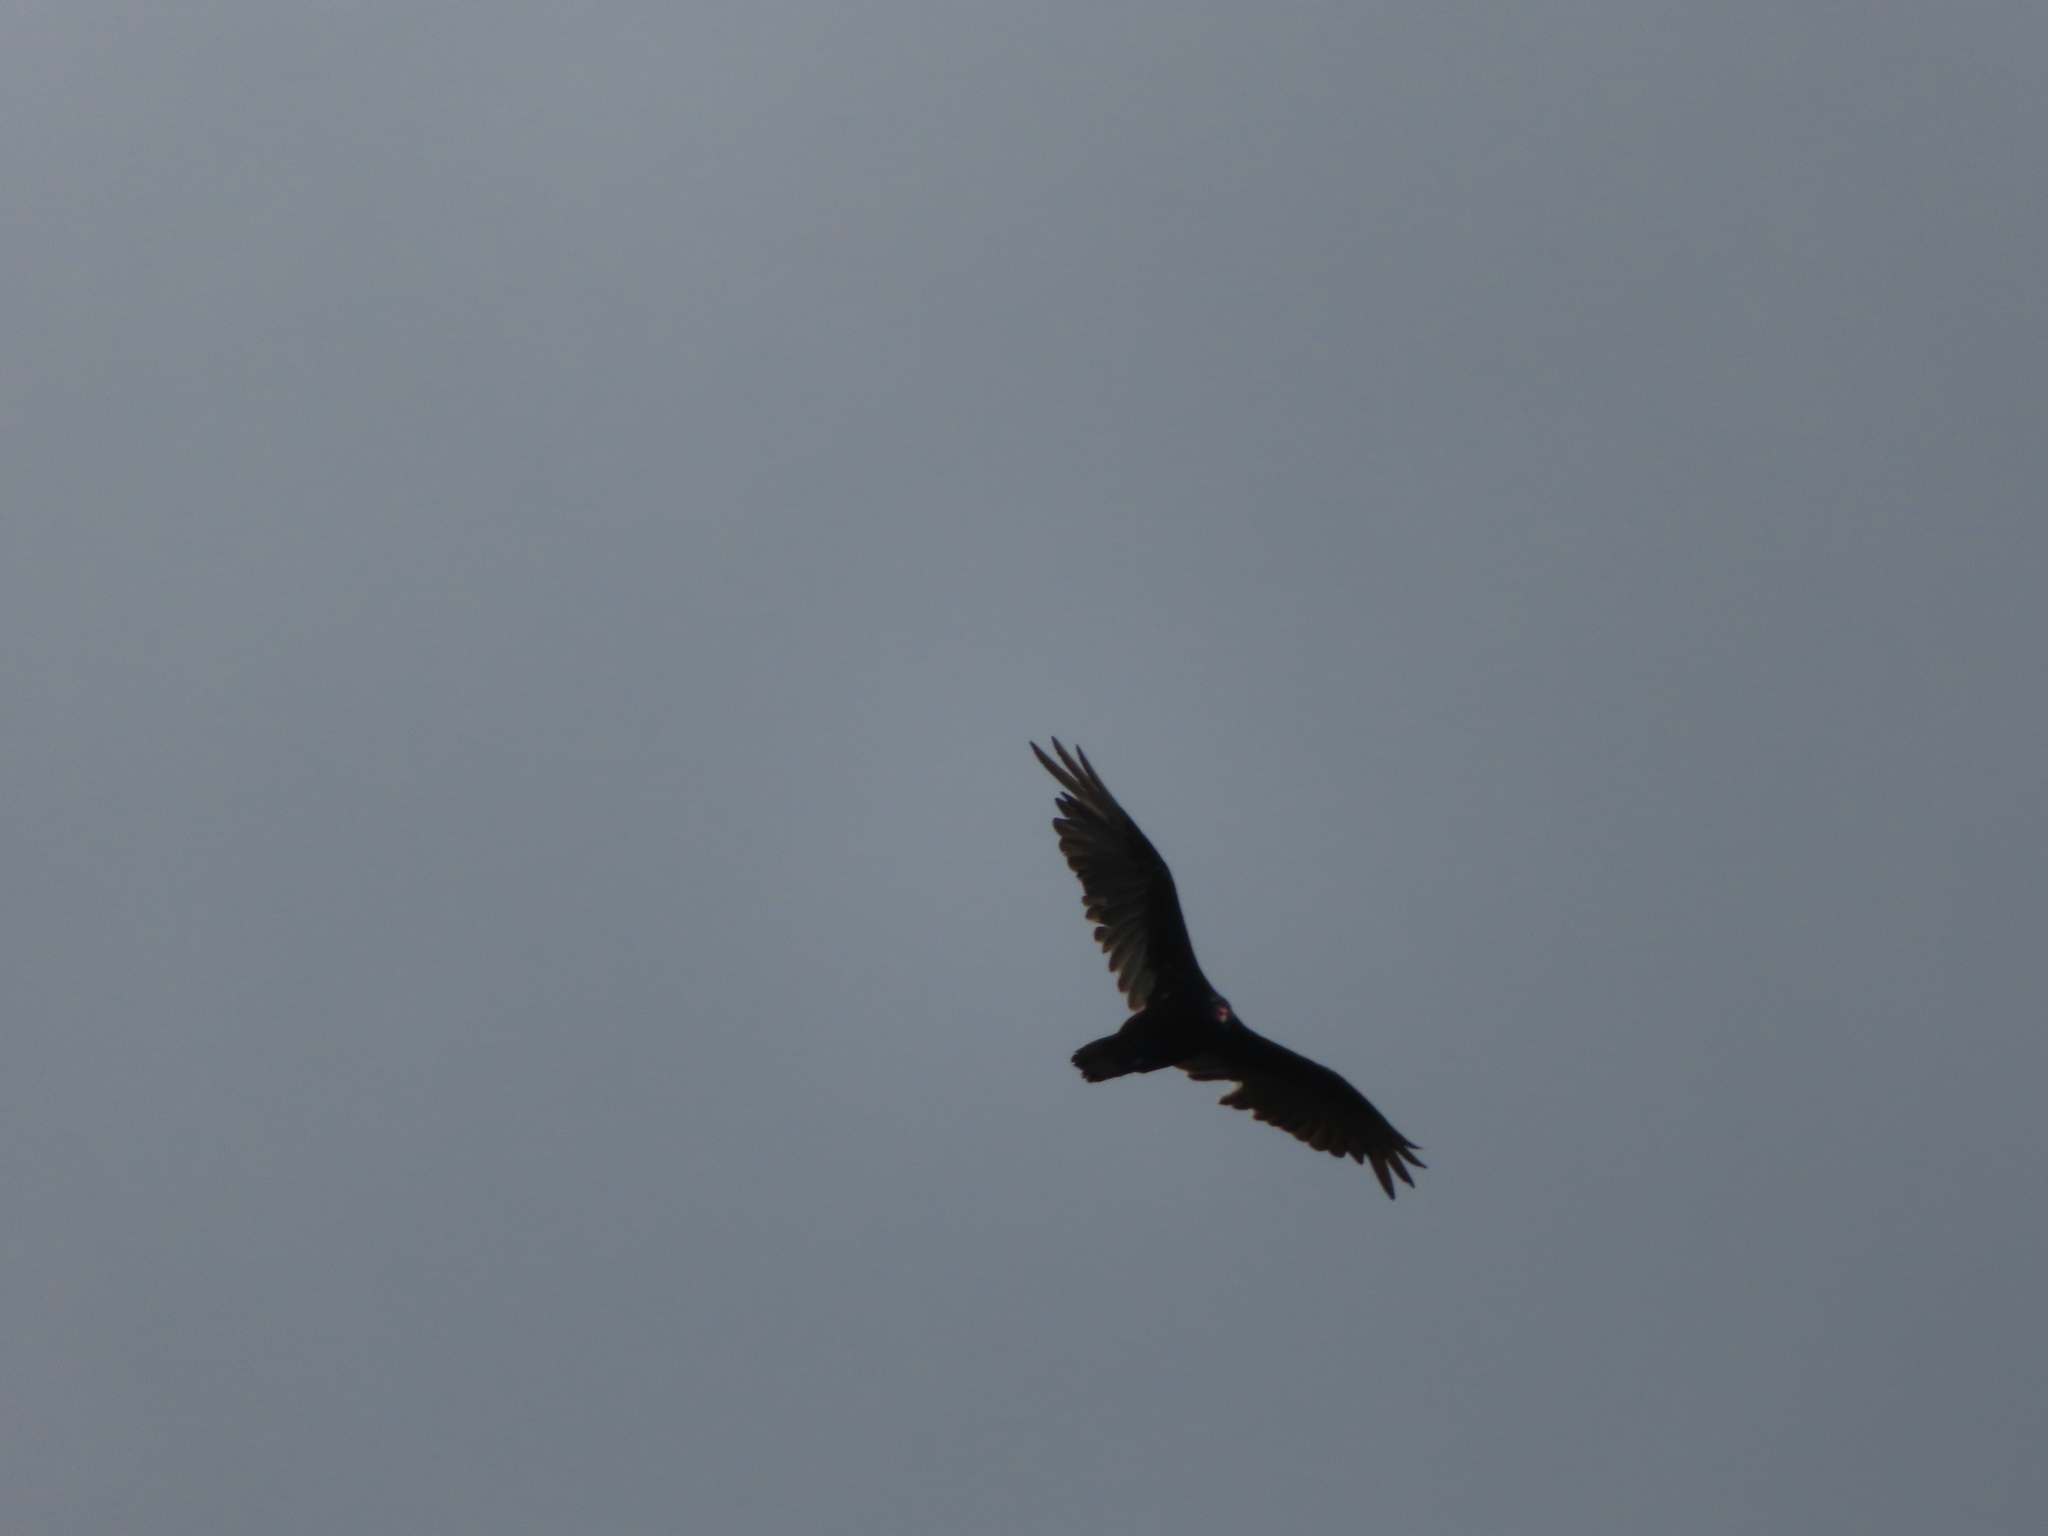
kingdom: Animalia
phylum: Chordata
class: Aves
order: Accipitriformes
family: Cathartidae
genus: Cathartes
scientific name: Cathartes aura
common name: Turkey vulture
